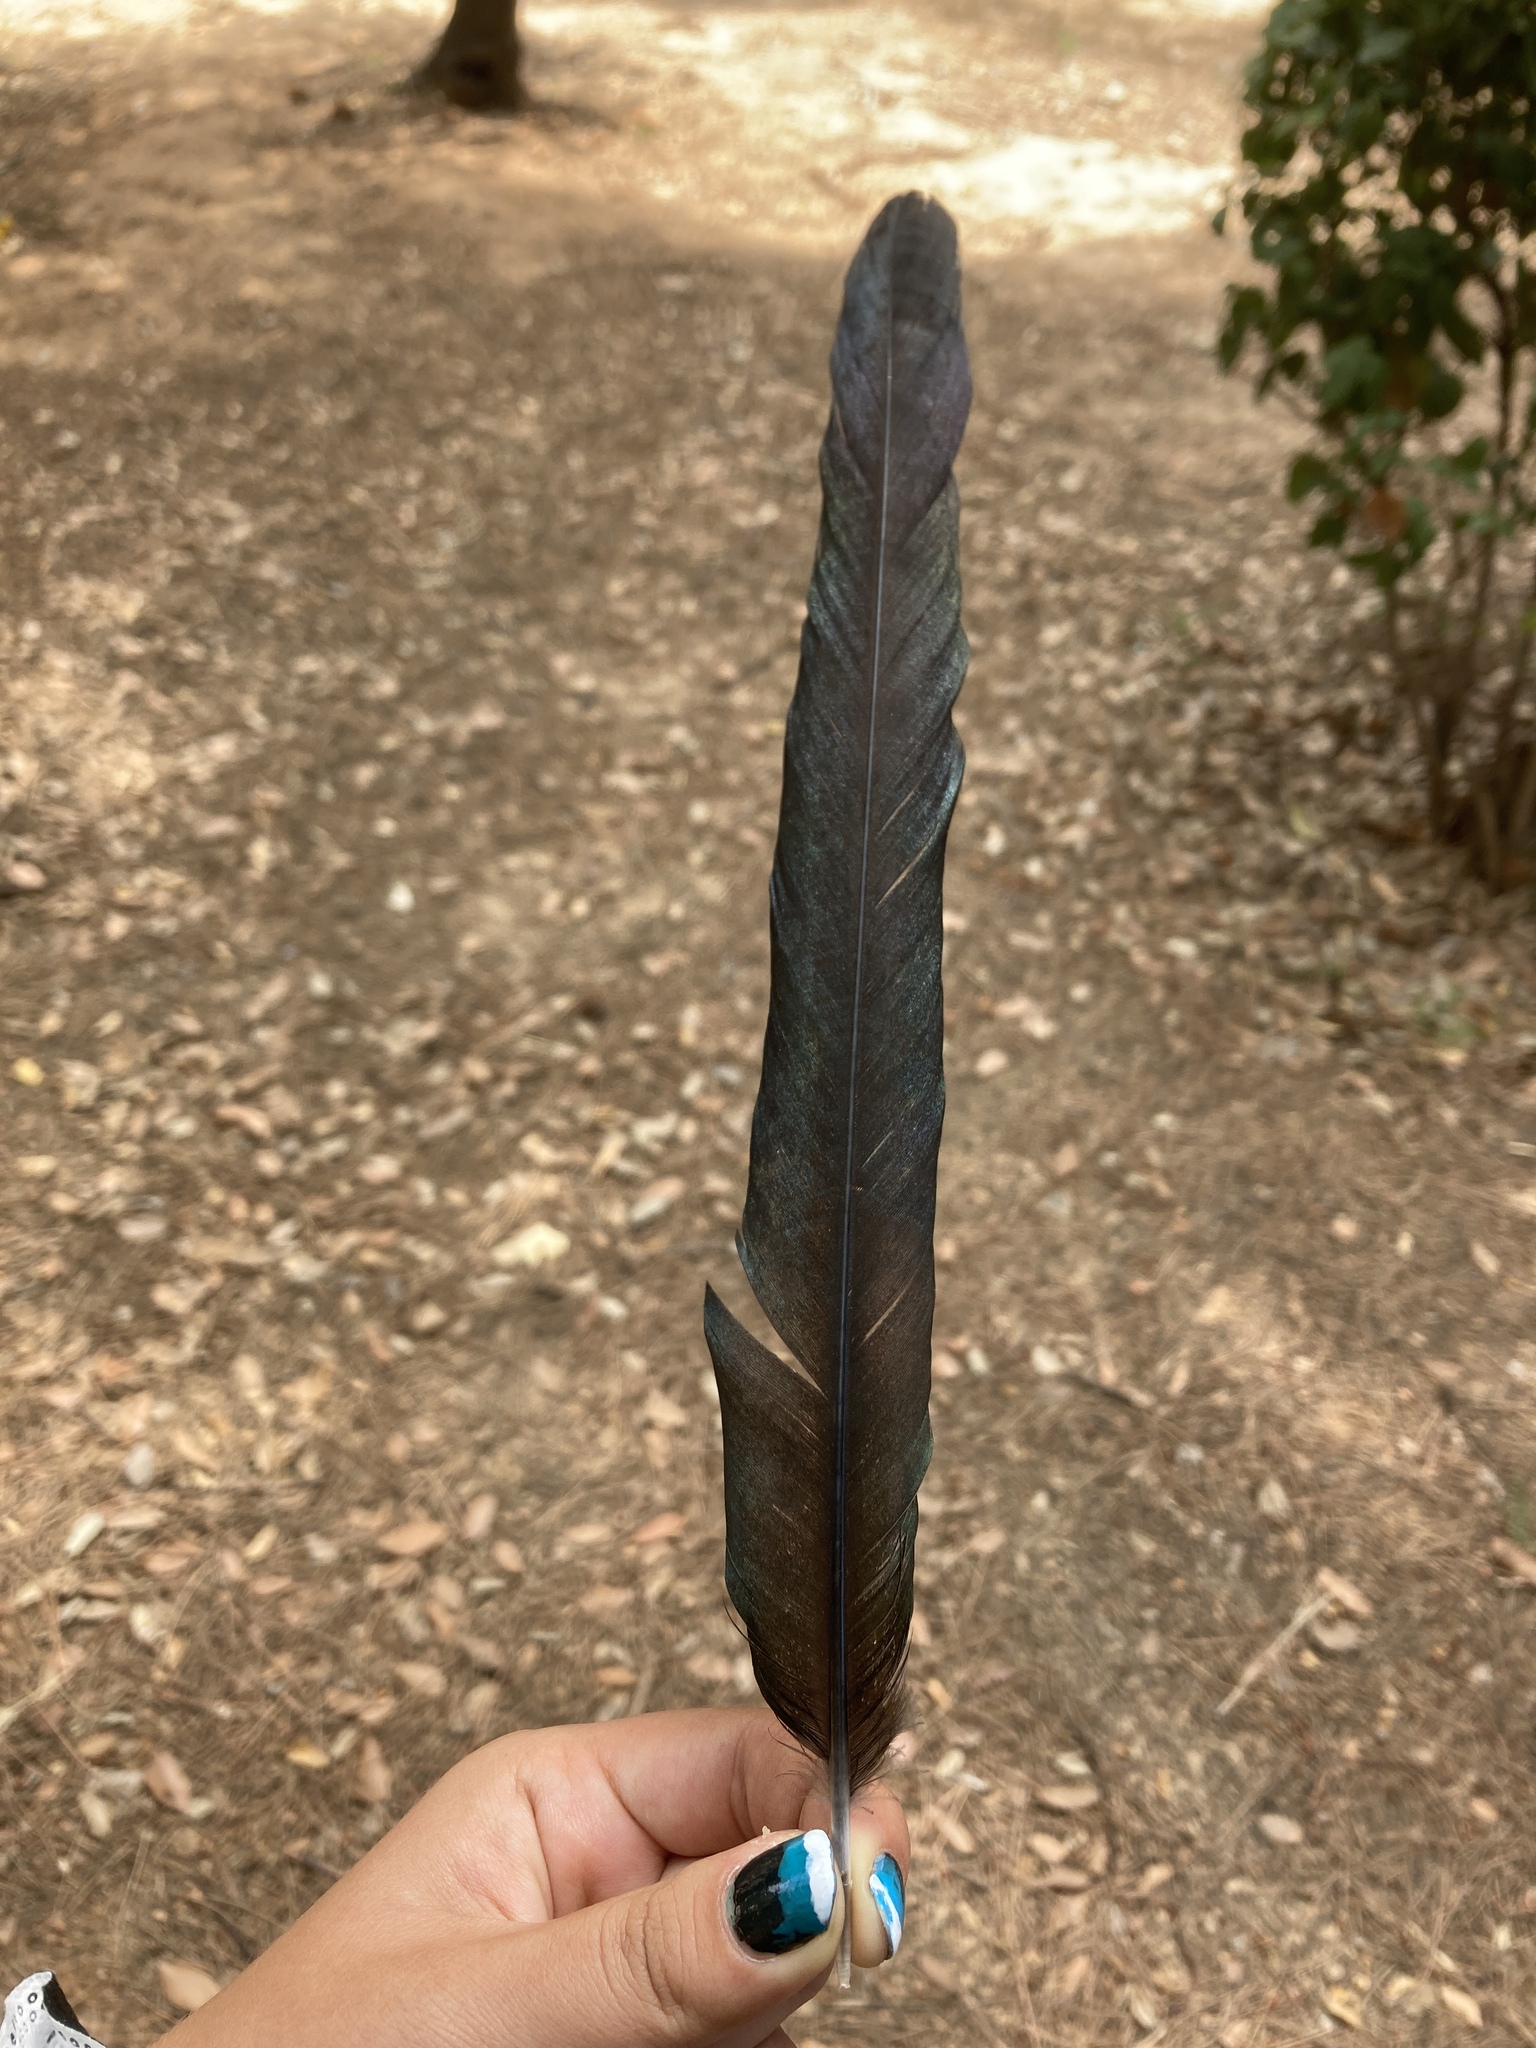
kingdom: Animalia
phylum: Chordata
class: Aves
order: Passeriformes
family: Corvidae
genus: Pica
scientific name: Pica pica
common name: Eurasian magpie
